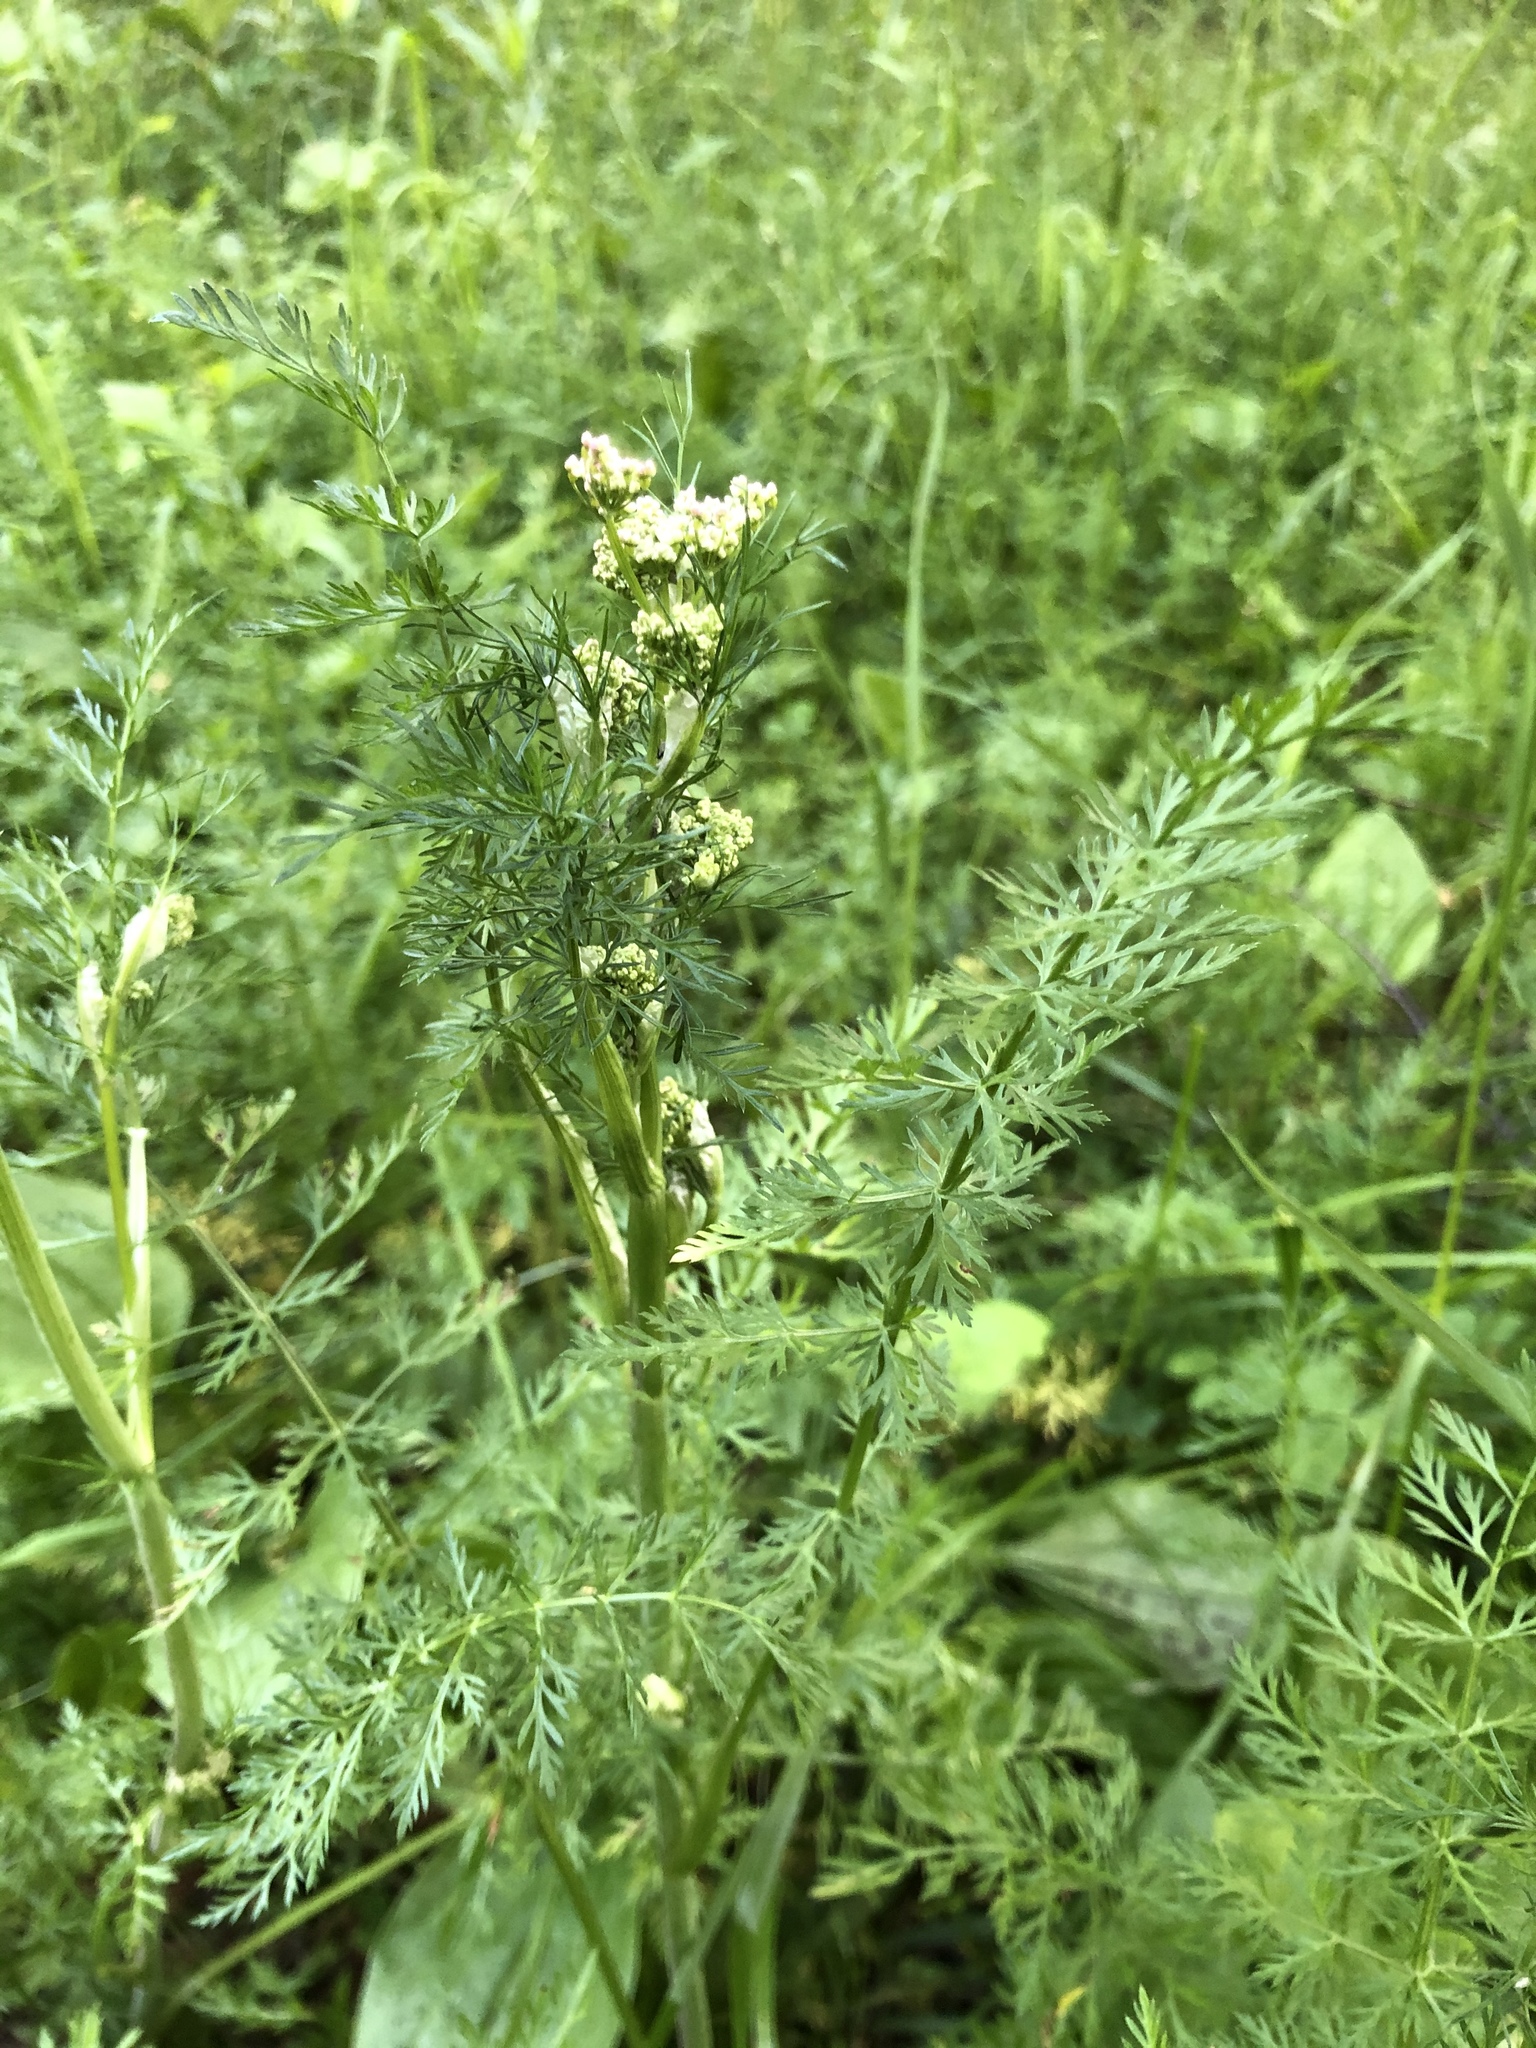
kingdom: Plantae
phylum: Tracheophyta
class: Magnoliopsida
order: Apiales
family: Apiaceae
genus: Carum
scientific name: Carum carvi
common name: Caraway
